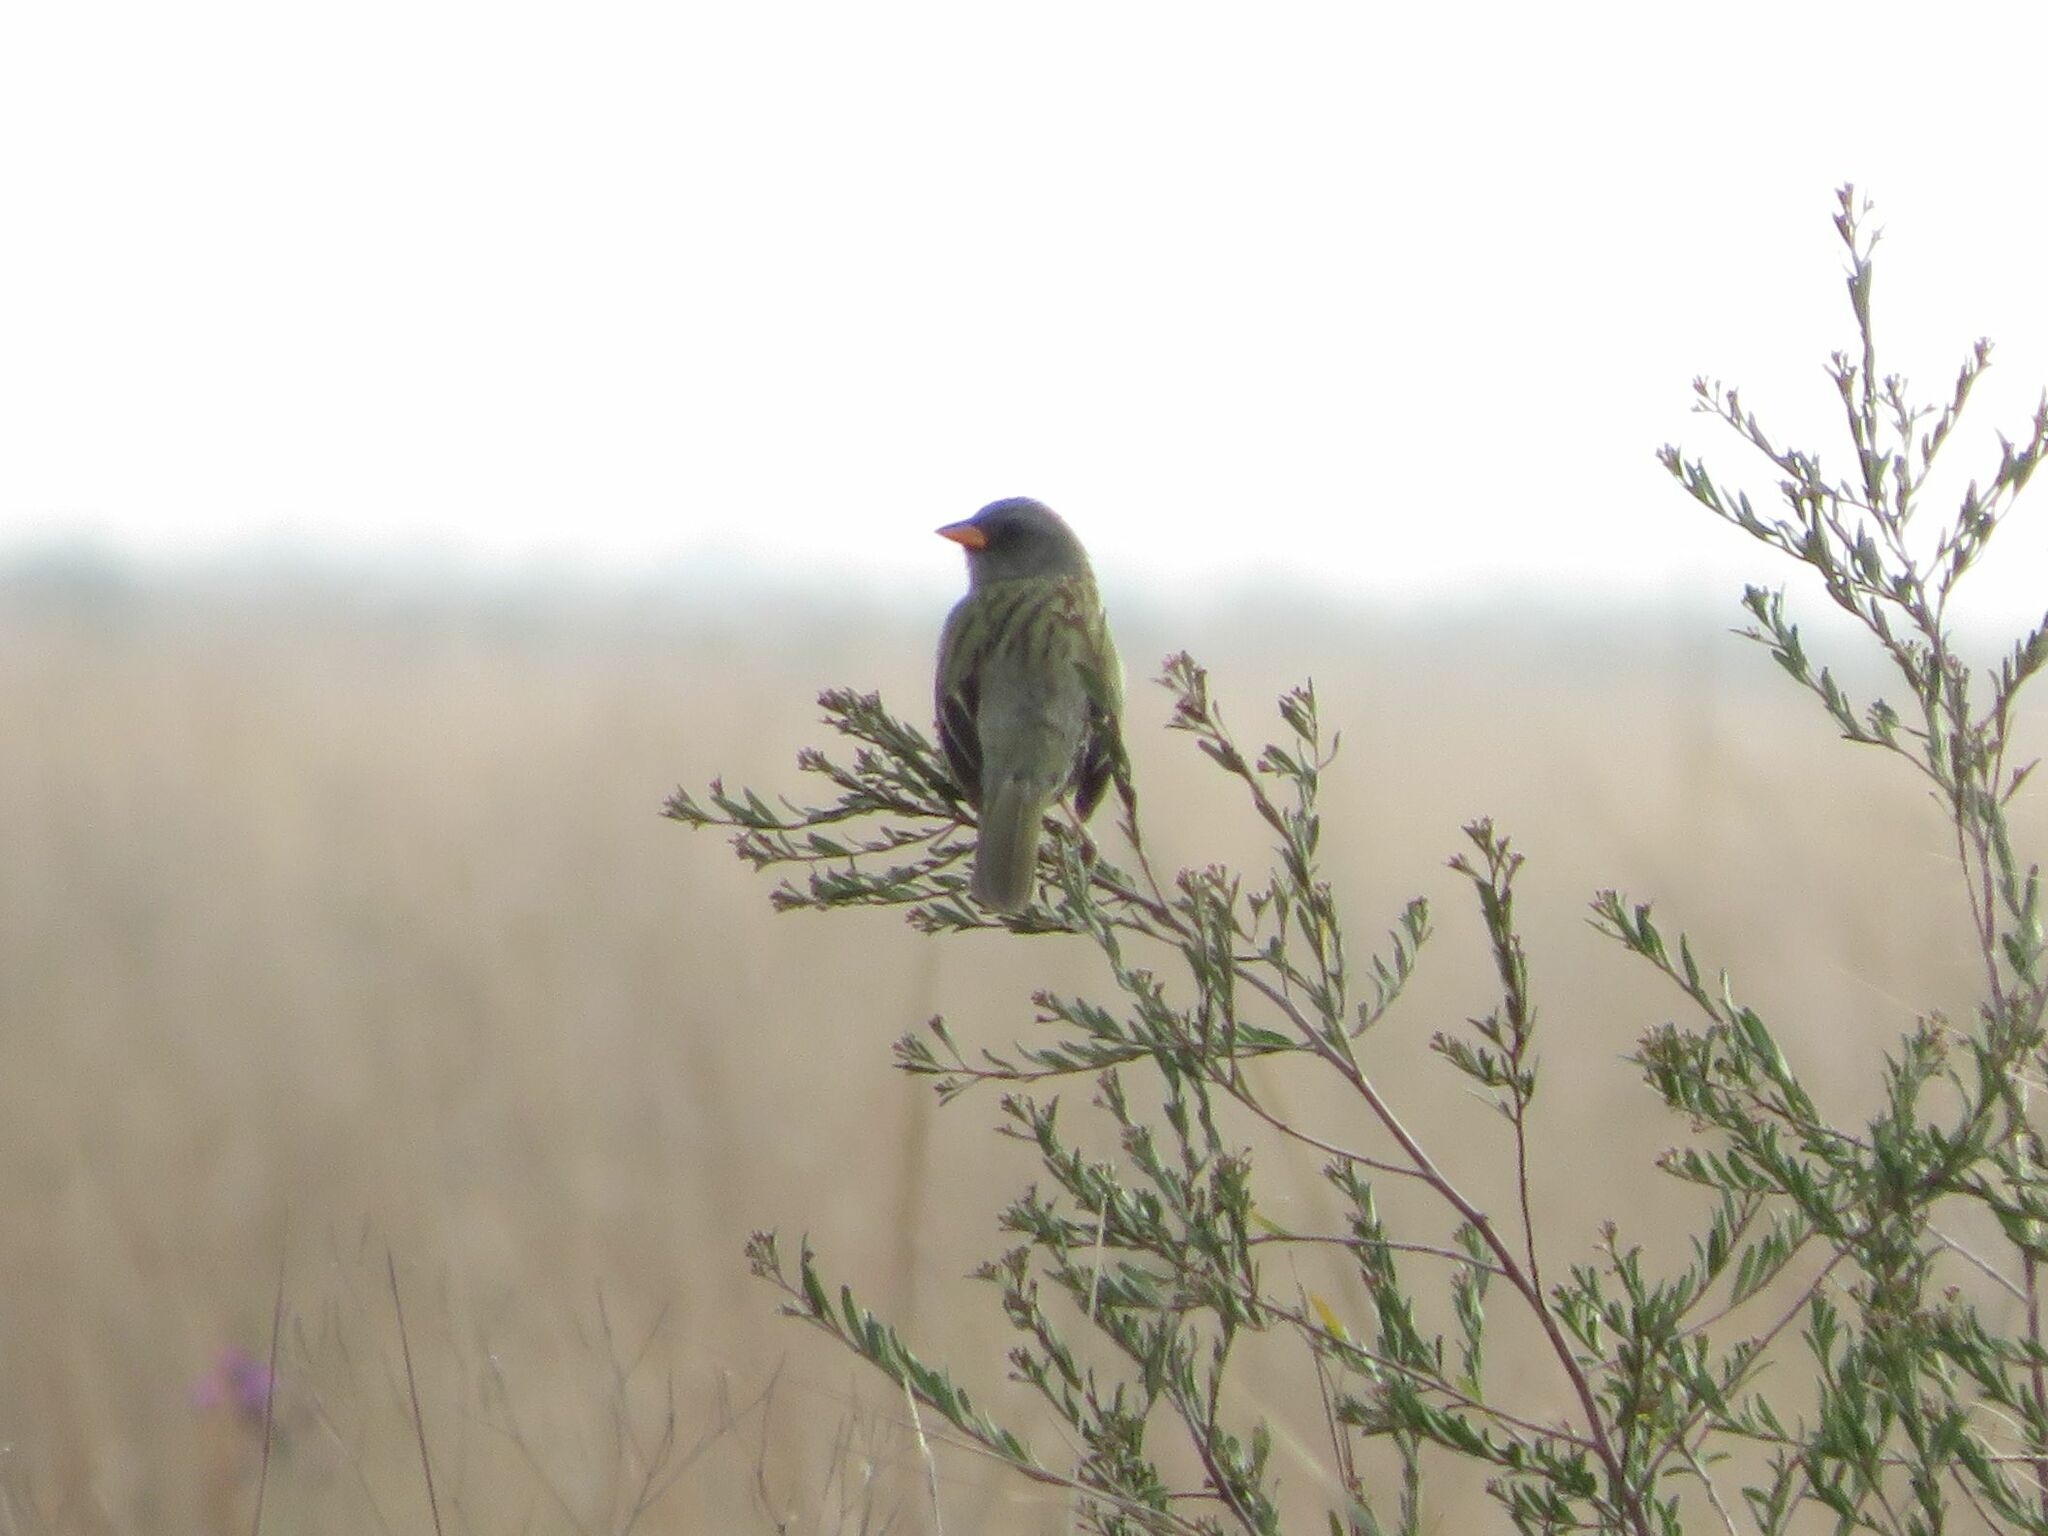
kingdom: Animalia
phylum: Chordata
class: Aves
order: Passeriformes
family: Thraupidae
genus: Embernagra
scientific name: Embernagra platensis
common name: Pampa finch
